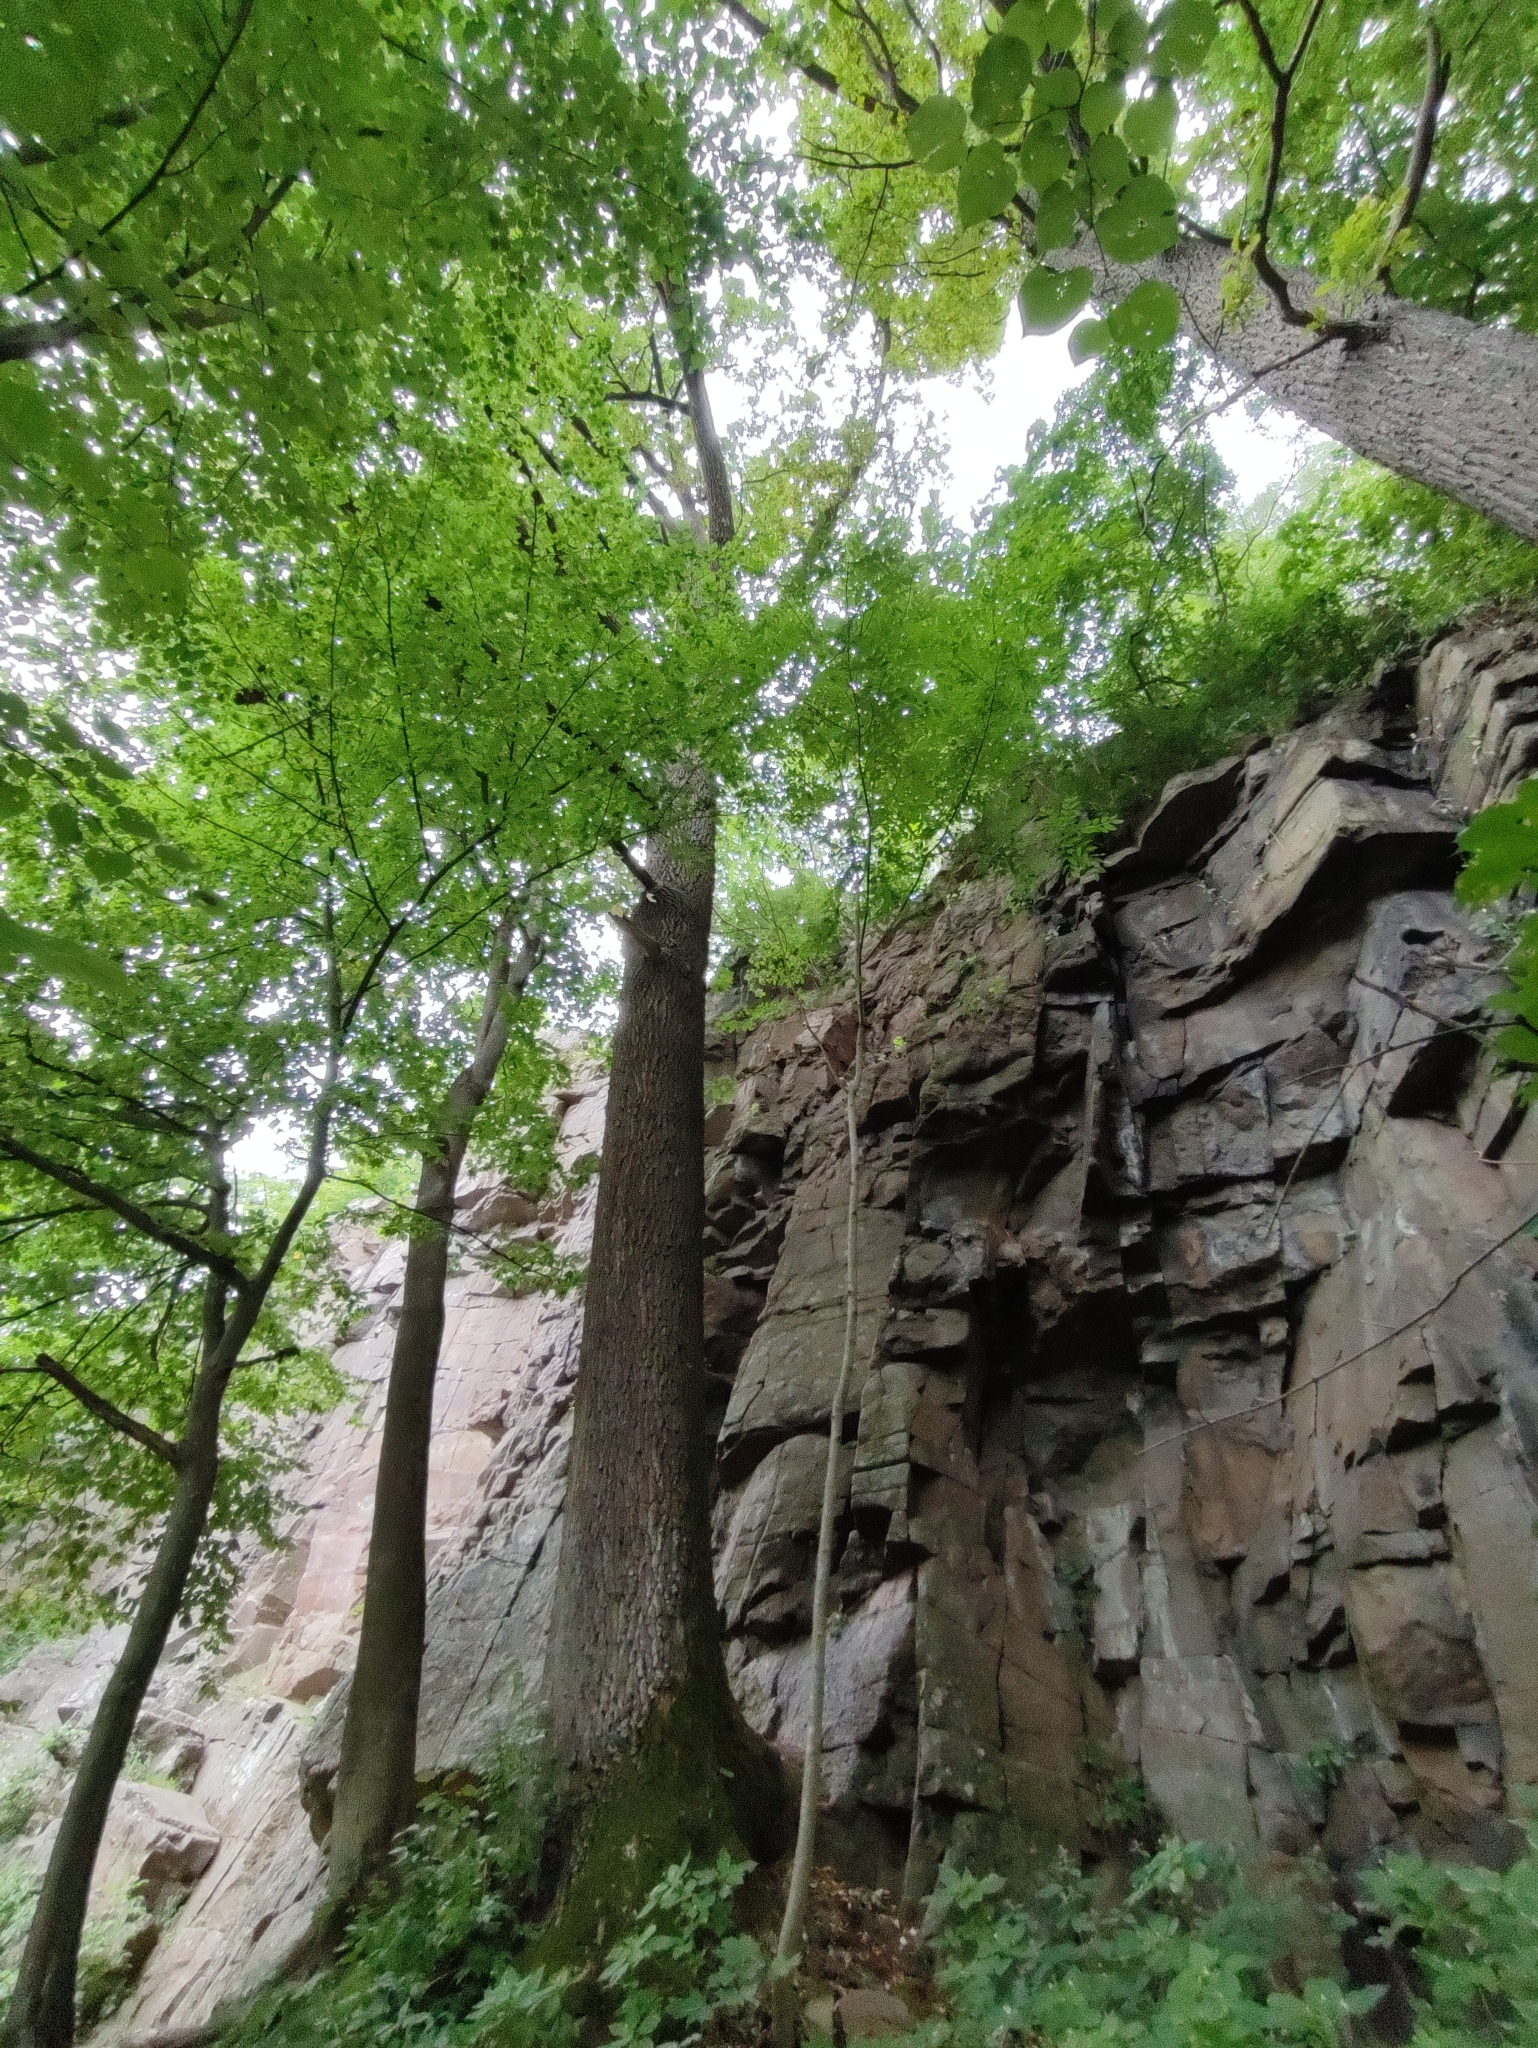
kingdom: Plantae
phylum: Tracheophyta
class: Magnoliopsida
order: Fagales
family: Fagaceae
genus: Quercus
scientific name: Quercus robur
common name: Pedunculate oak
